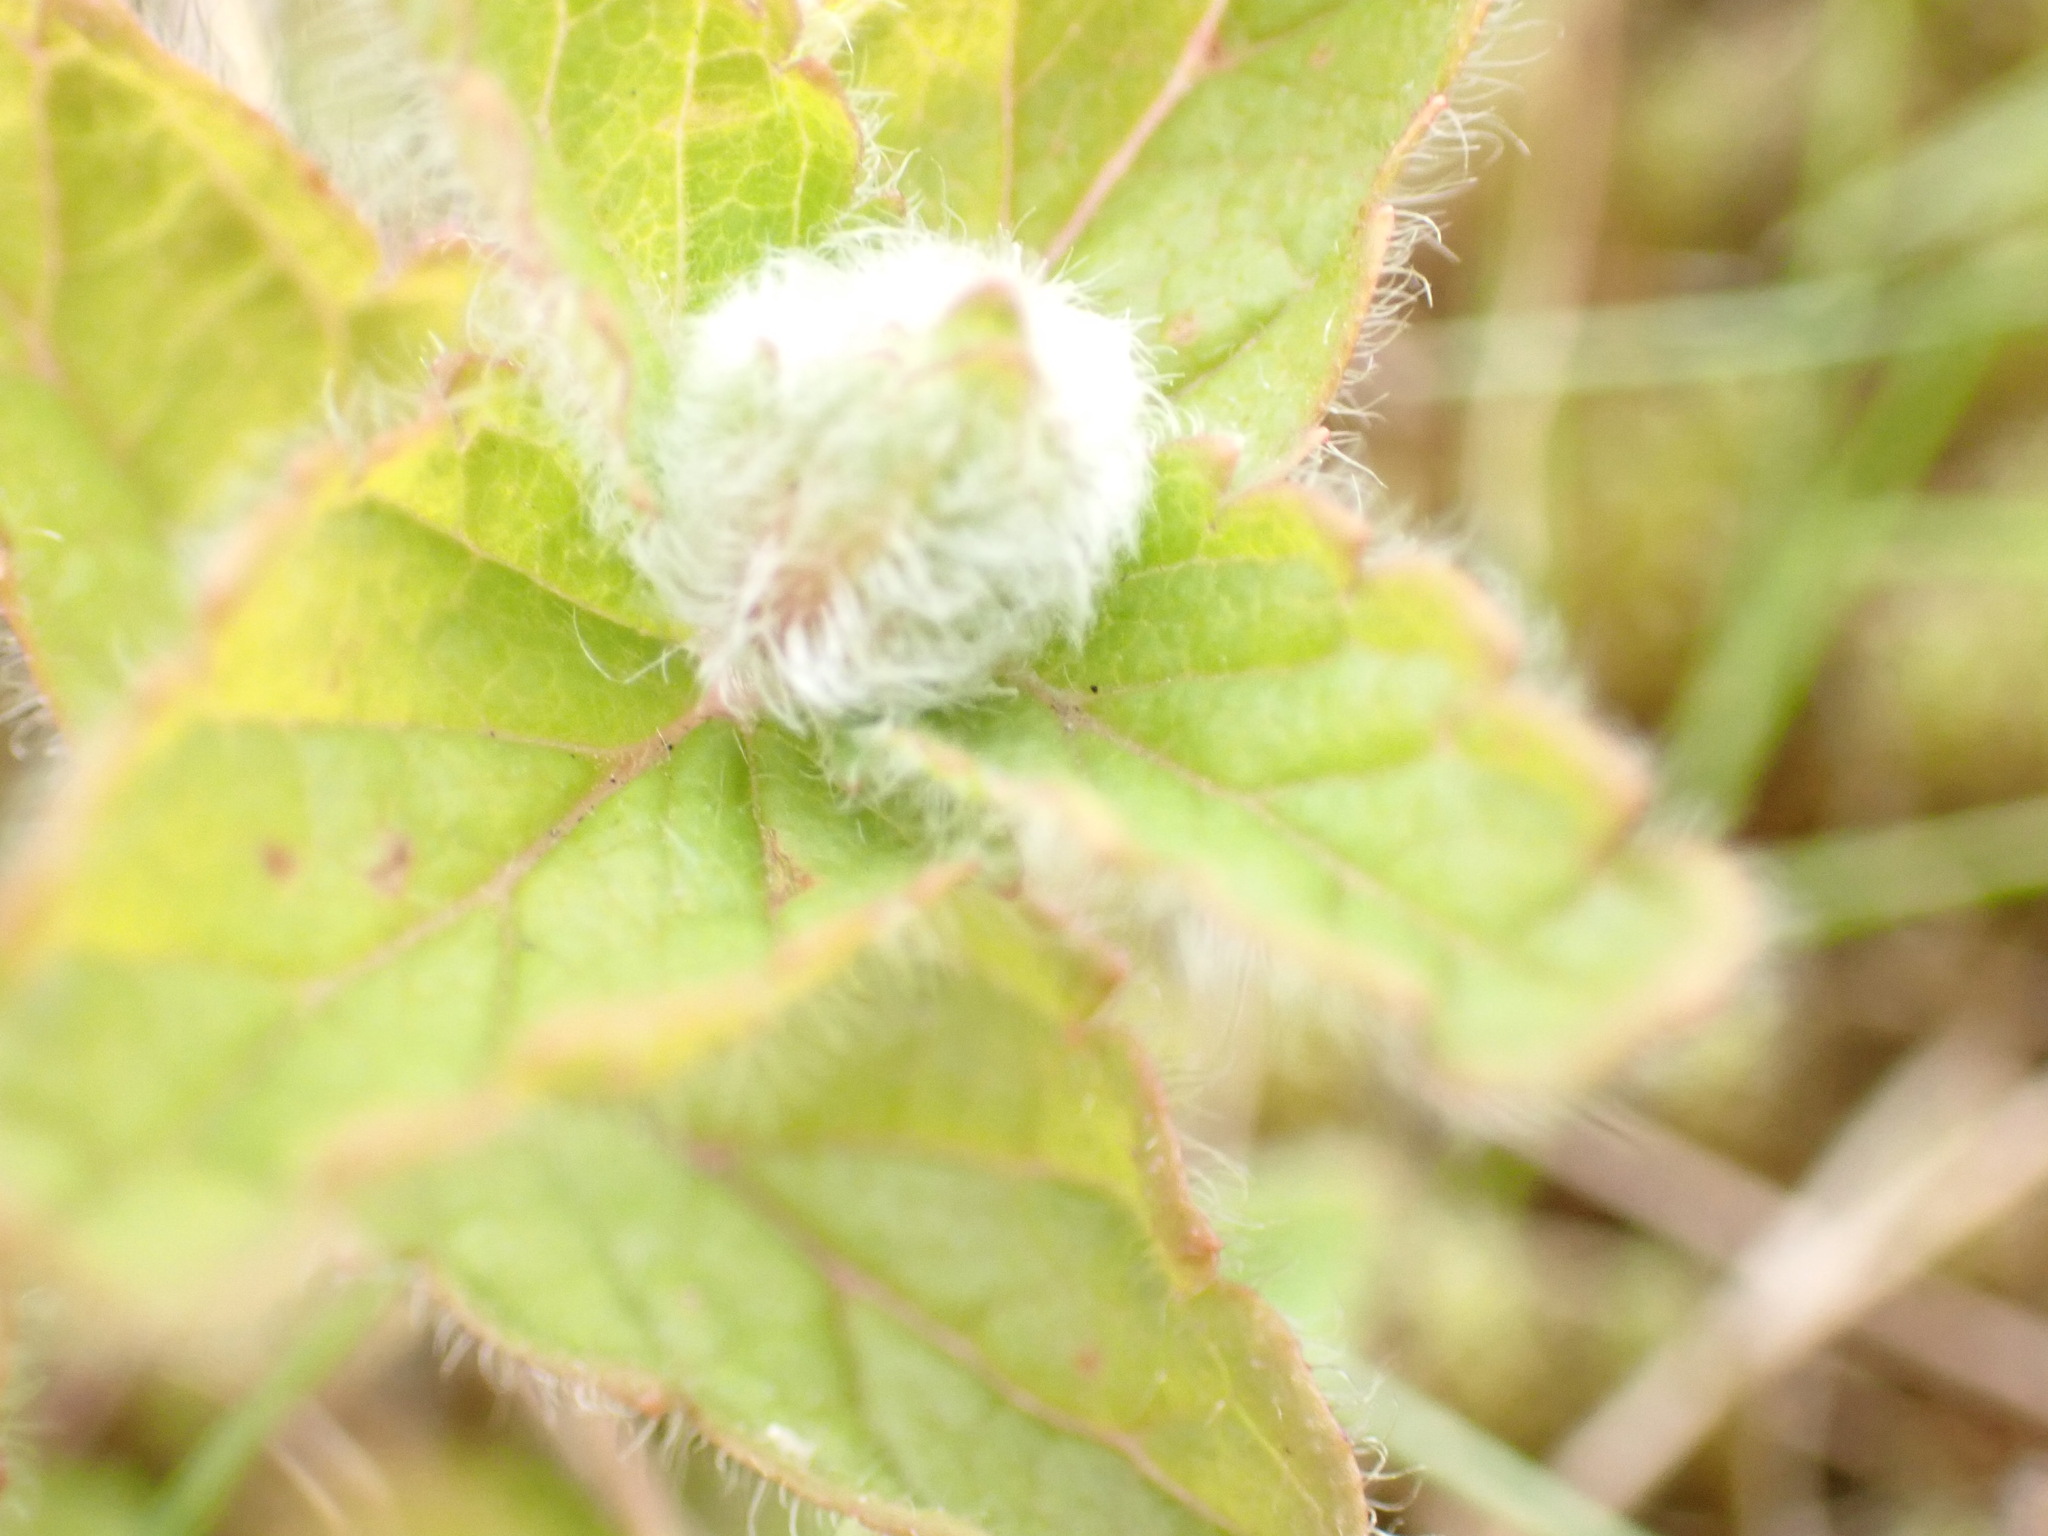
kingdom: Animalia
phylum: Arthropoda
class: Insecta
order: Diptera
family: Cecidomyiidae
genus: Jaapiella
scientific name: Jaapiella veronicae
